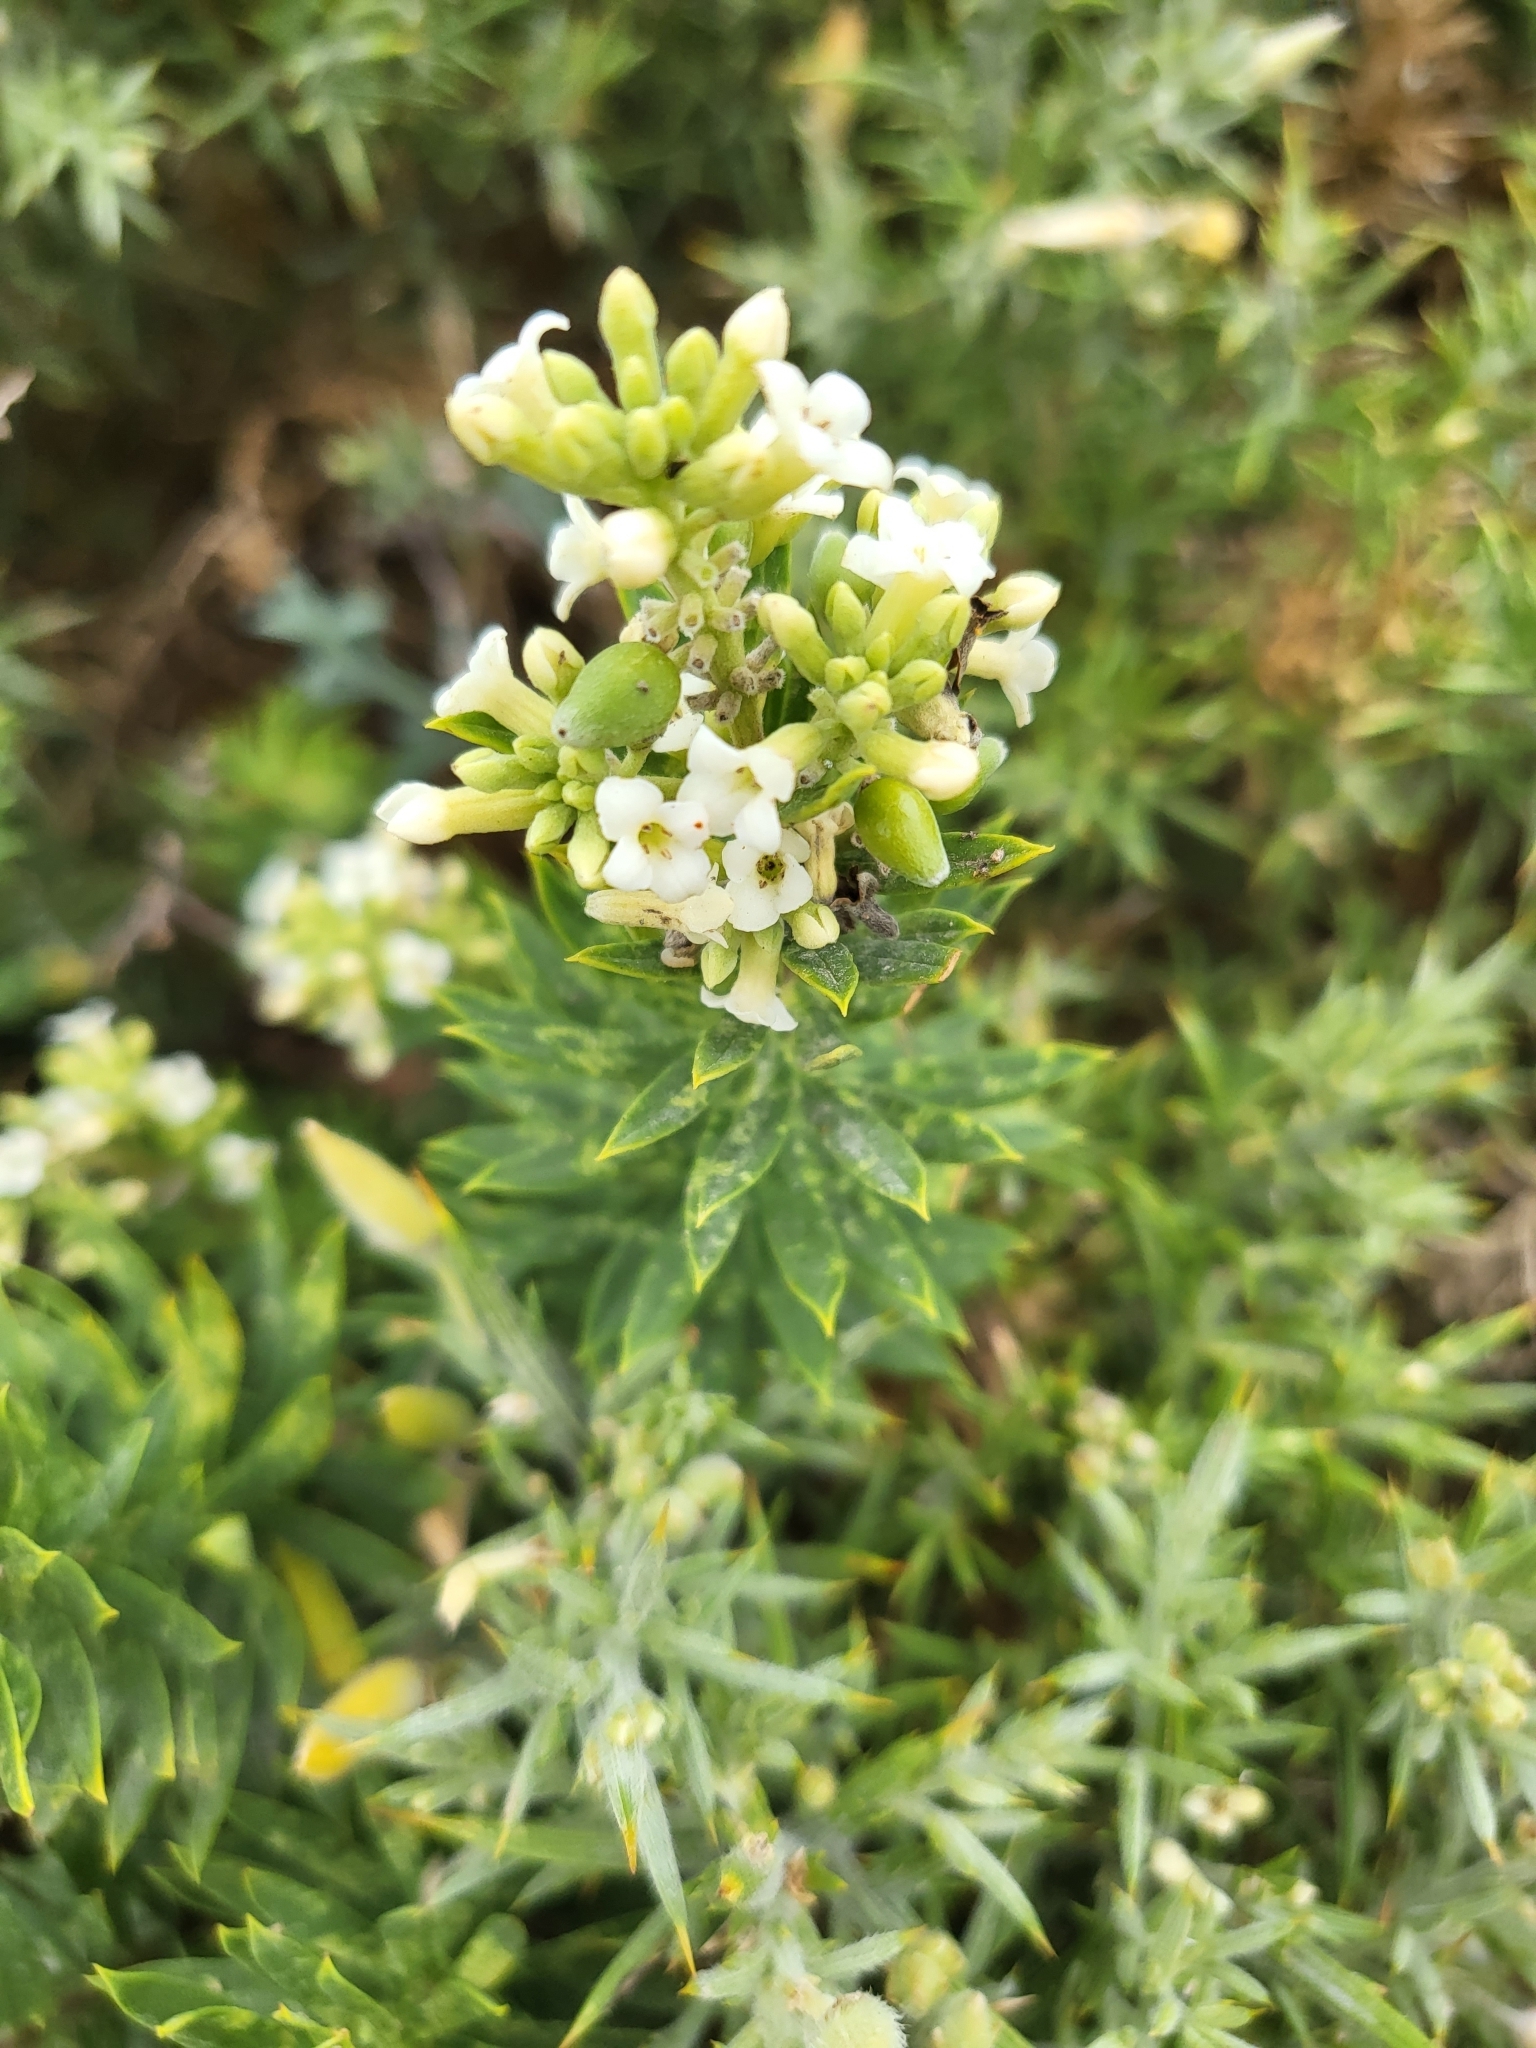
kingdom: Plantae
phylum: Tracheophyta
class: Magnoliopsida
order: Malvales
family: Thymelaeaceae
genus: Daphne
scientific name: Daphne gnidium
